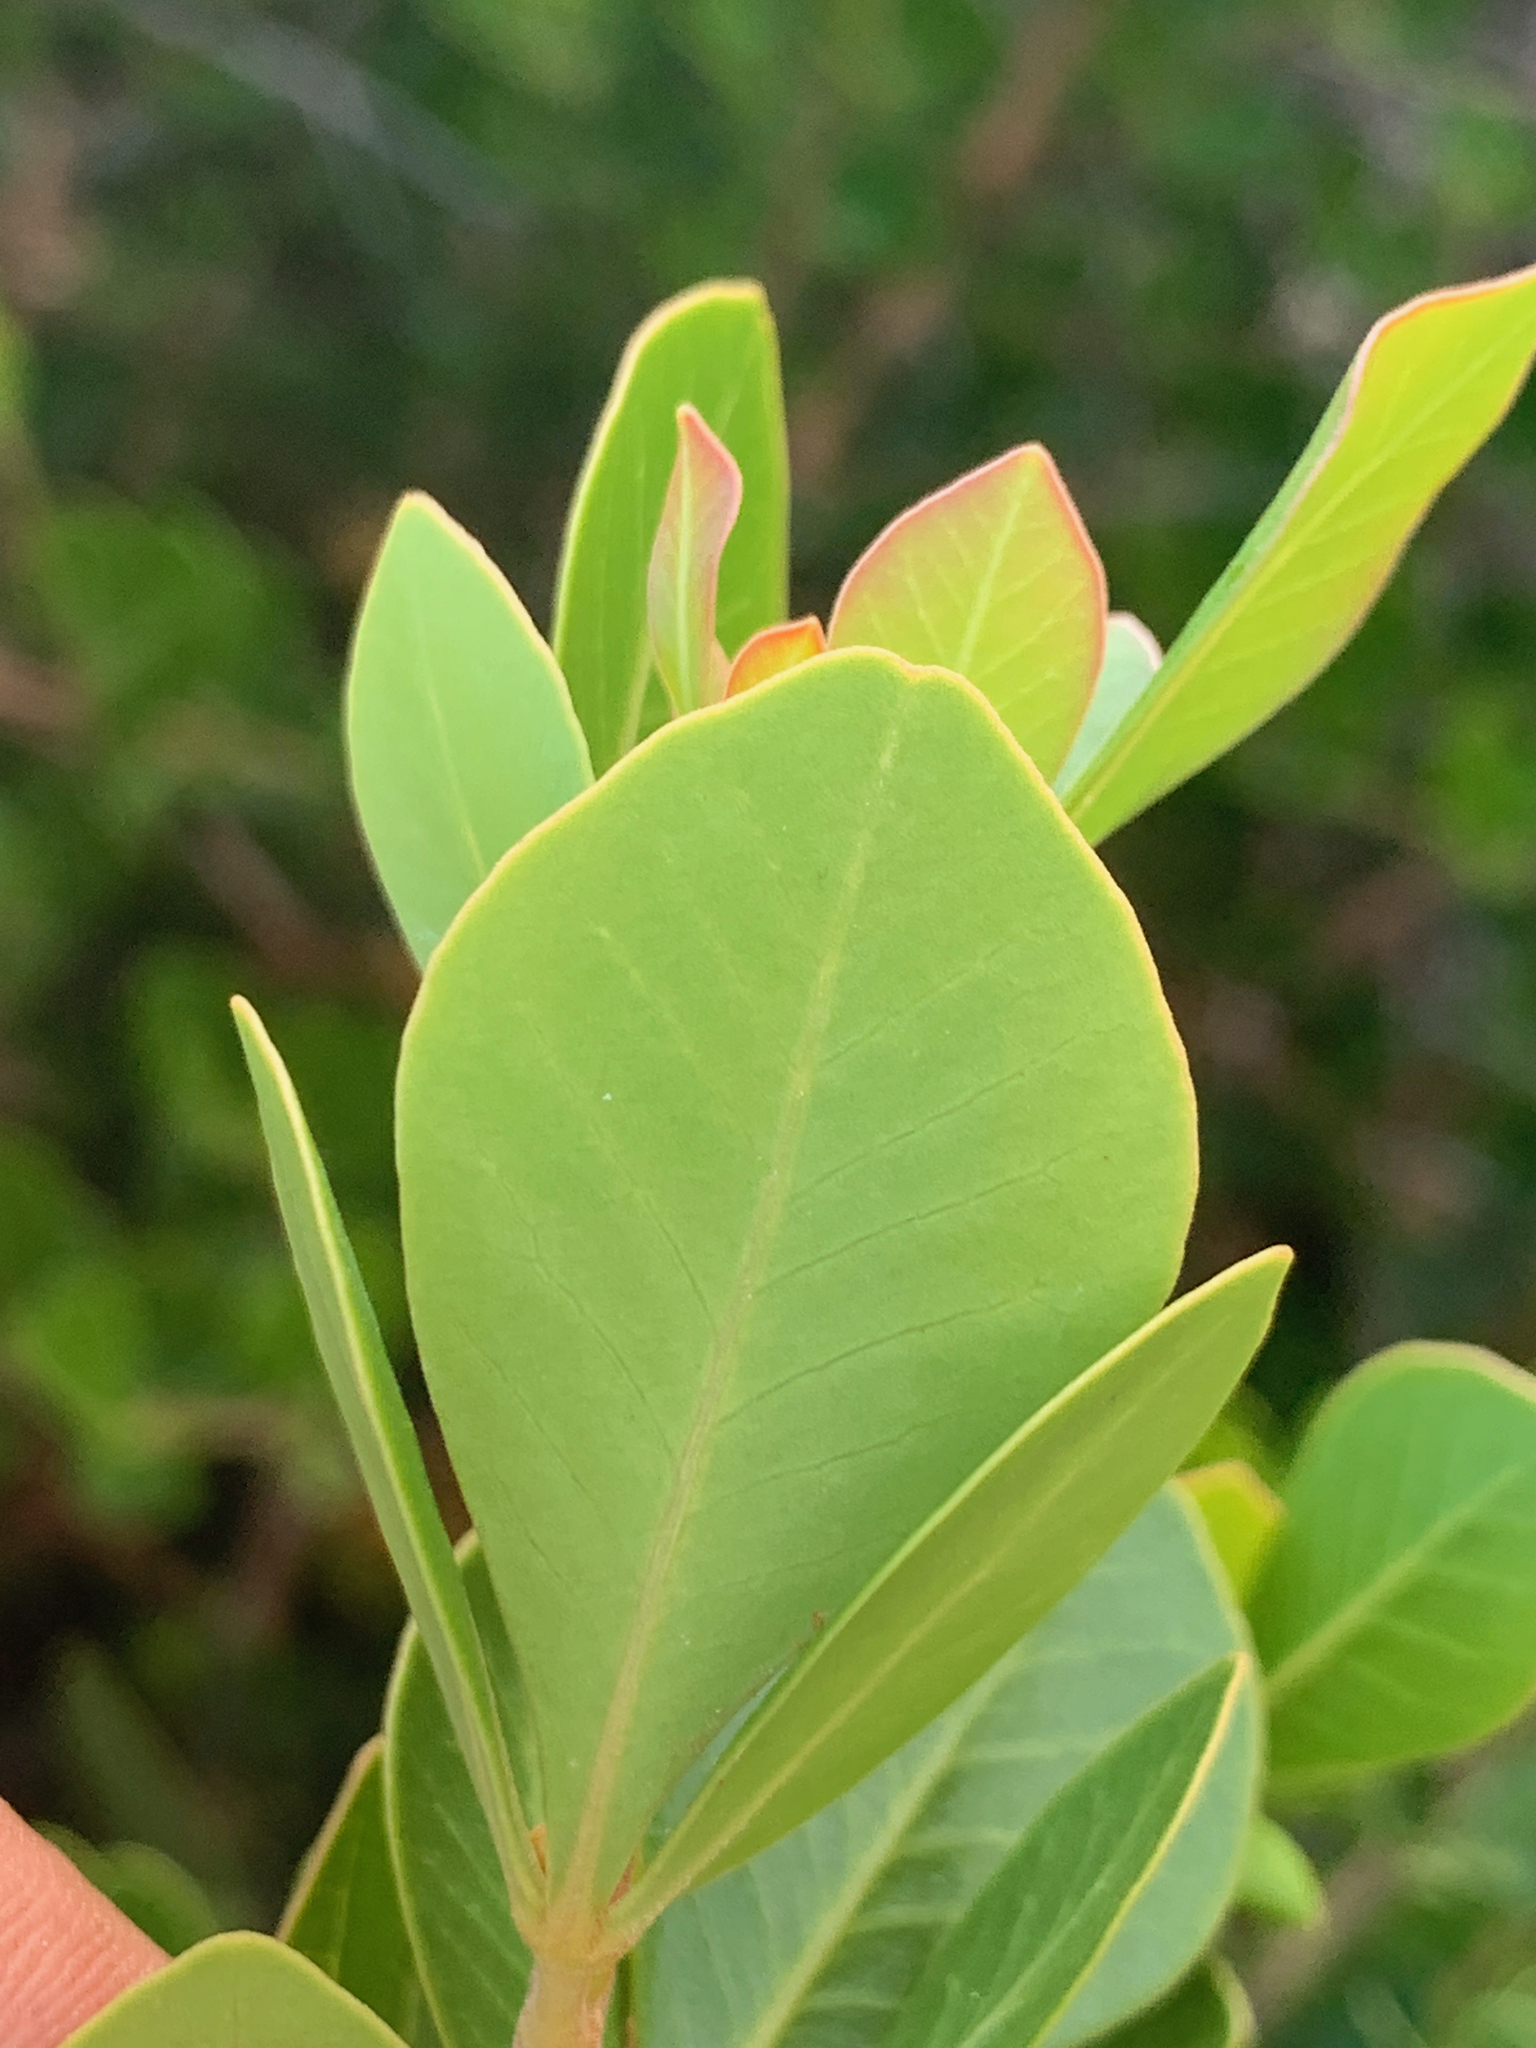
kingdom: Plantae
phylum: Tracheophyta
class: Magnoliopsida
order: Sapindales
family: Anacardiaceae
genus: Searsia
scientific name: Searsia lucida
